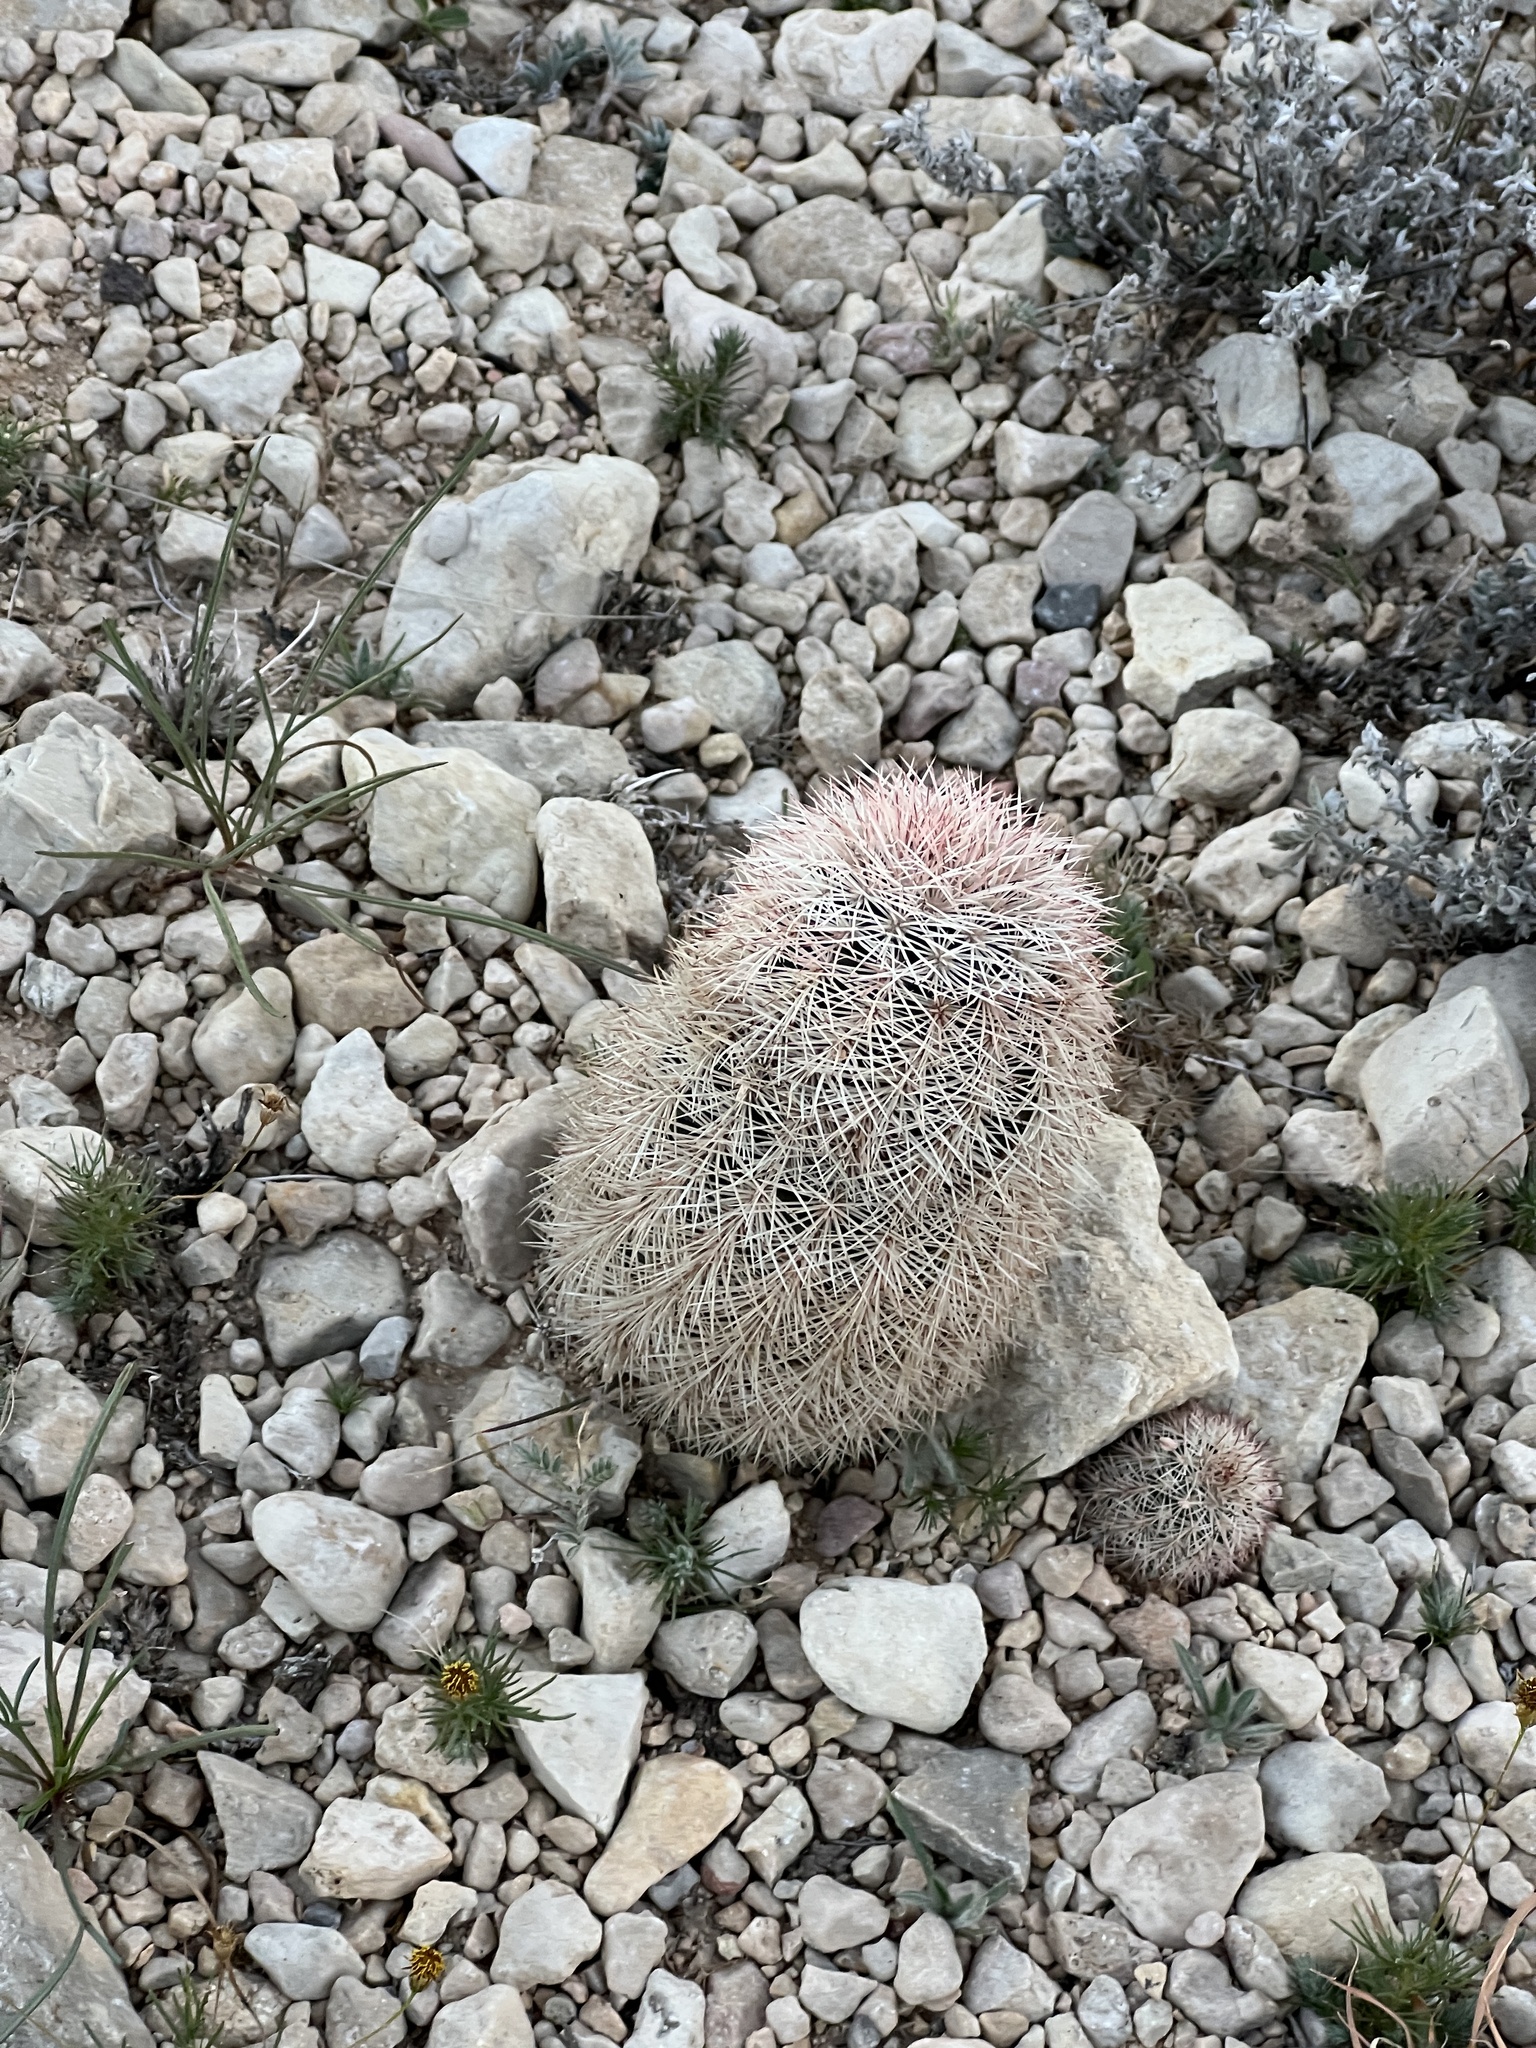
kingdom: Plantae
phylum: Tracheophyta
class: Magnoliopsida
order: Caryophyllales
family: Cactaceae
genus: Echinocereus
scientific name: Echinocereus dasyacanthus
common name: Spiny hedgehog cactus
